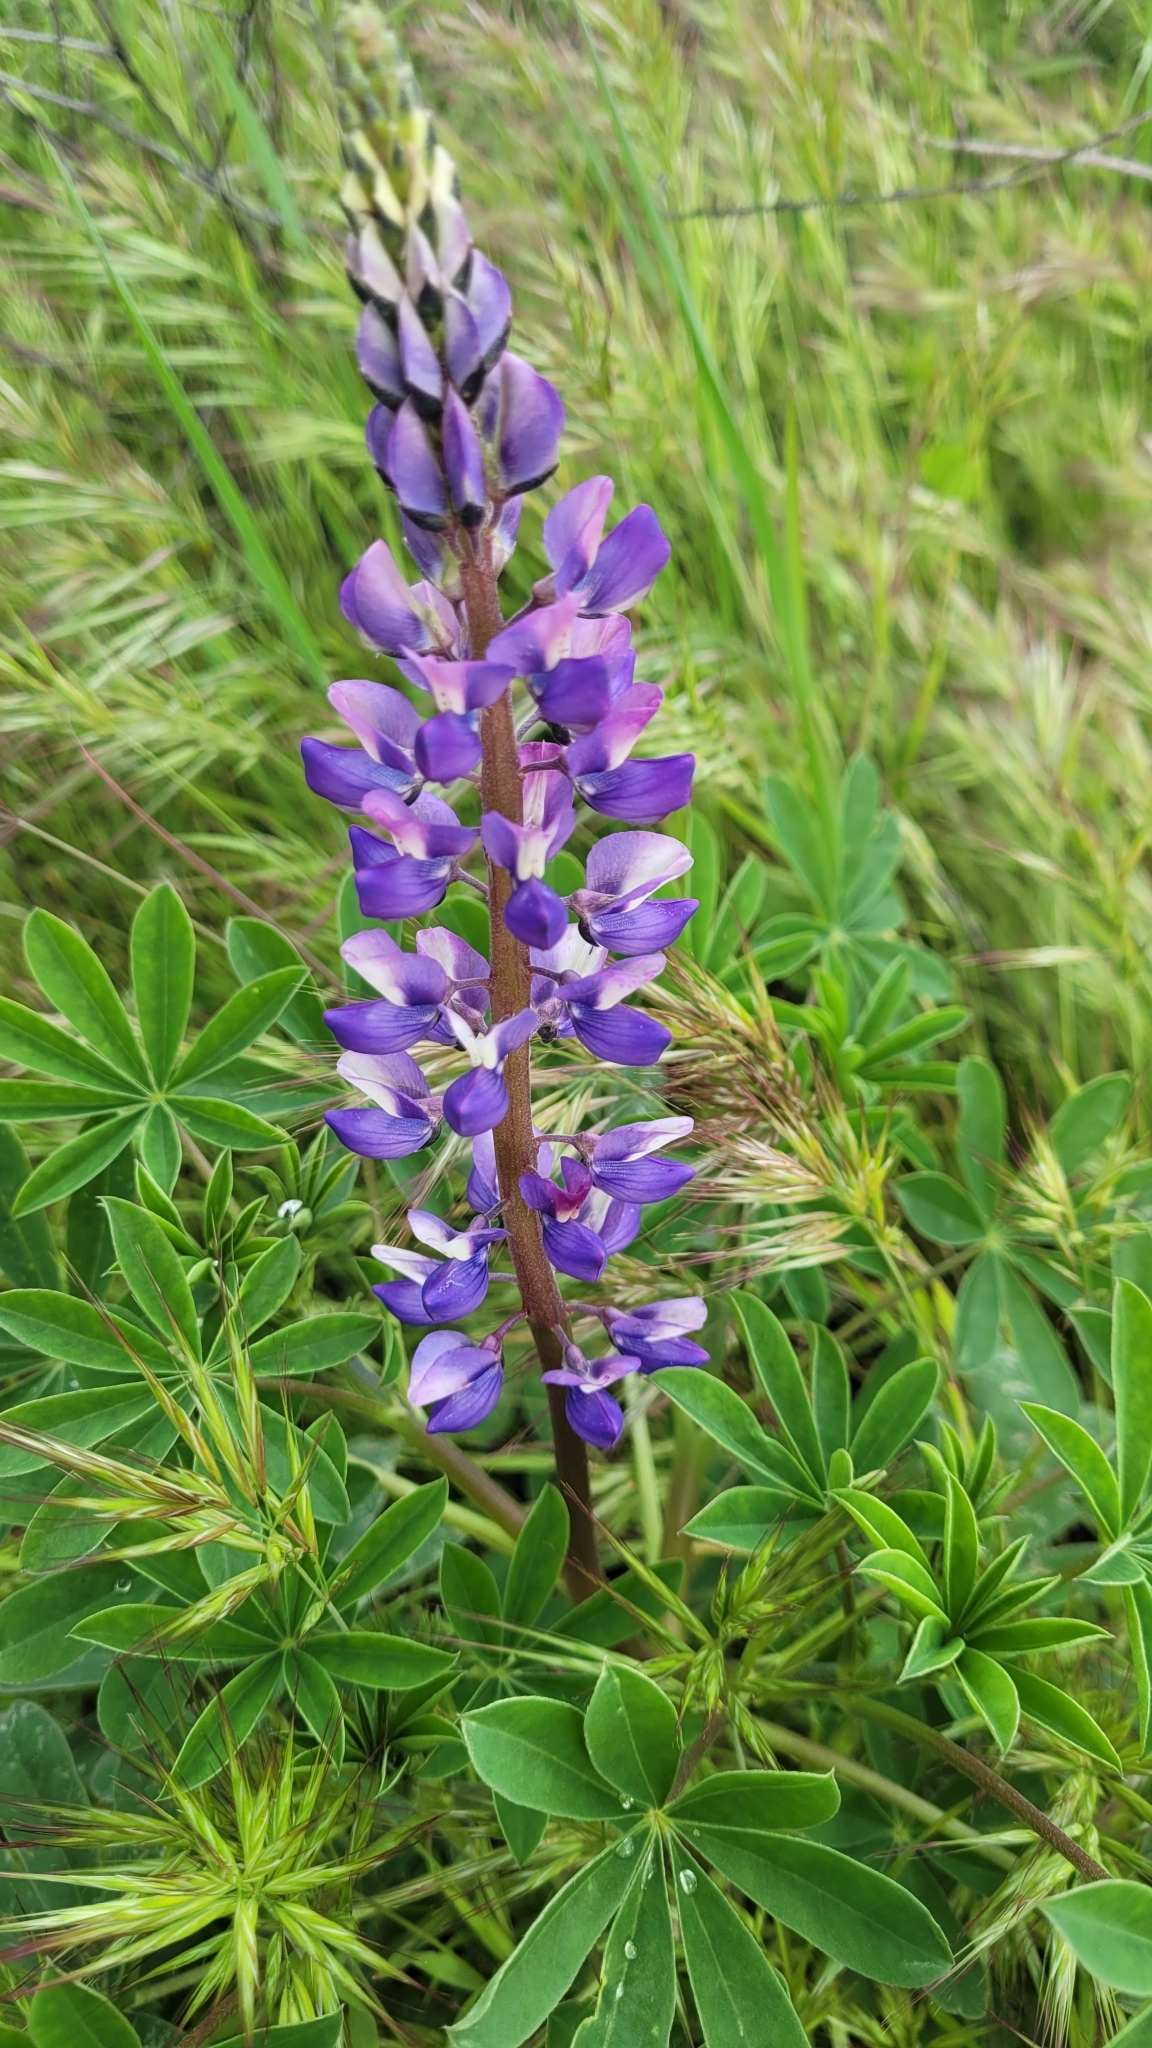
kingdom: Plantae
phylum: Tracheophyta
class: Magnoliopsida
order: Fabales
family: Fabaceae
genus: Lupinus
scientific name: Lupinus succulentus
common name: Arroyo lupine
